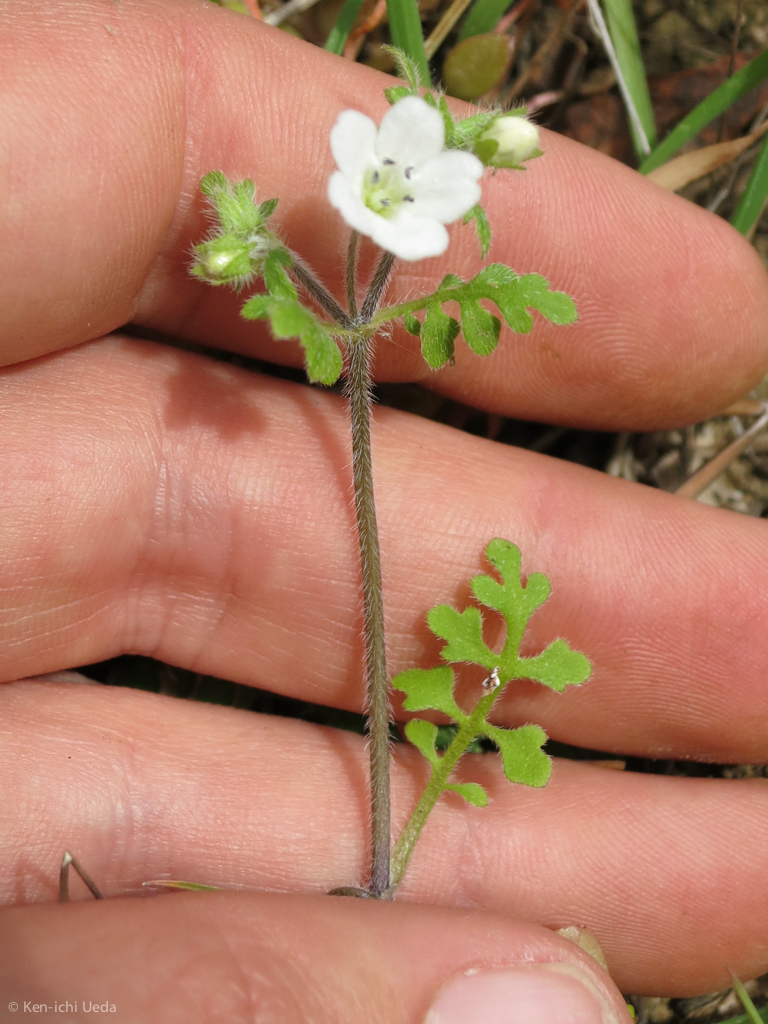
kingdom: Plantae
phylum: Tracheophyta
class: Magnoliopsida
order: Boraginales
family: Hydrophyllaceae
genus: Nemophila
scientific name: Nemophila heterophylla
